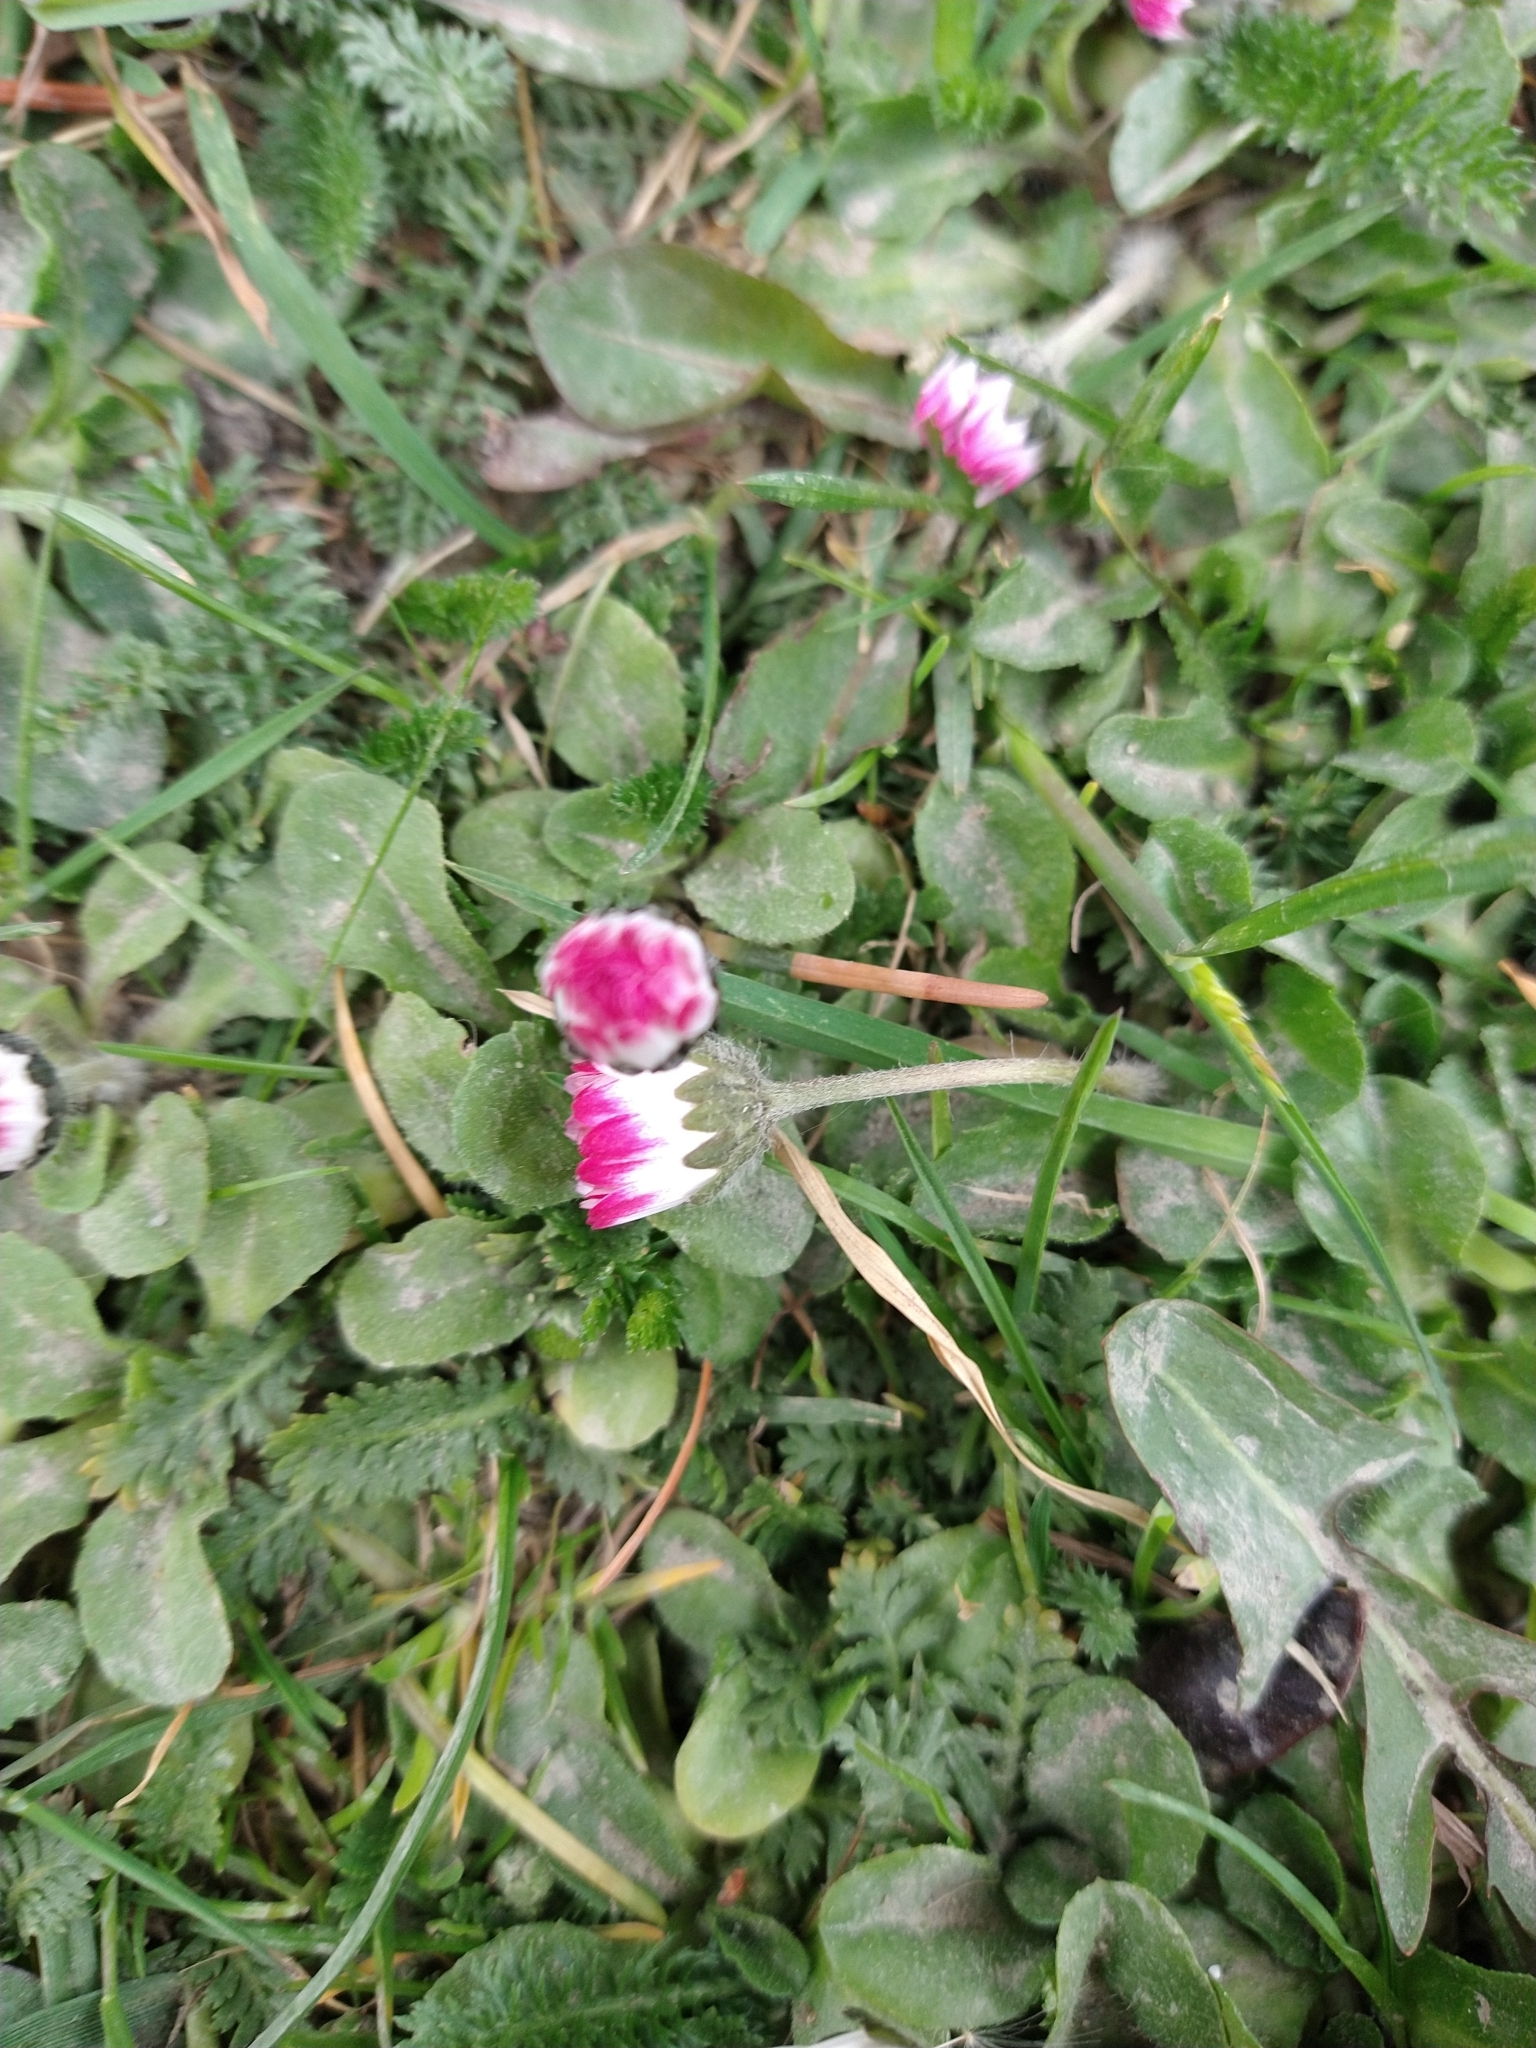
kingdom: Plantae
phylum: Tracheophyta
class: Magnoliopsida
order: Asterales
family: Asteraceae
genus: Bellis
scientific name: Bellis perennis
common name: Lawndaisy
